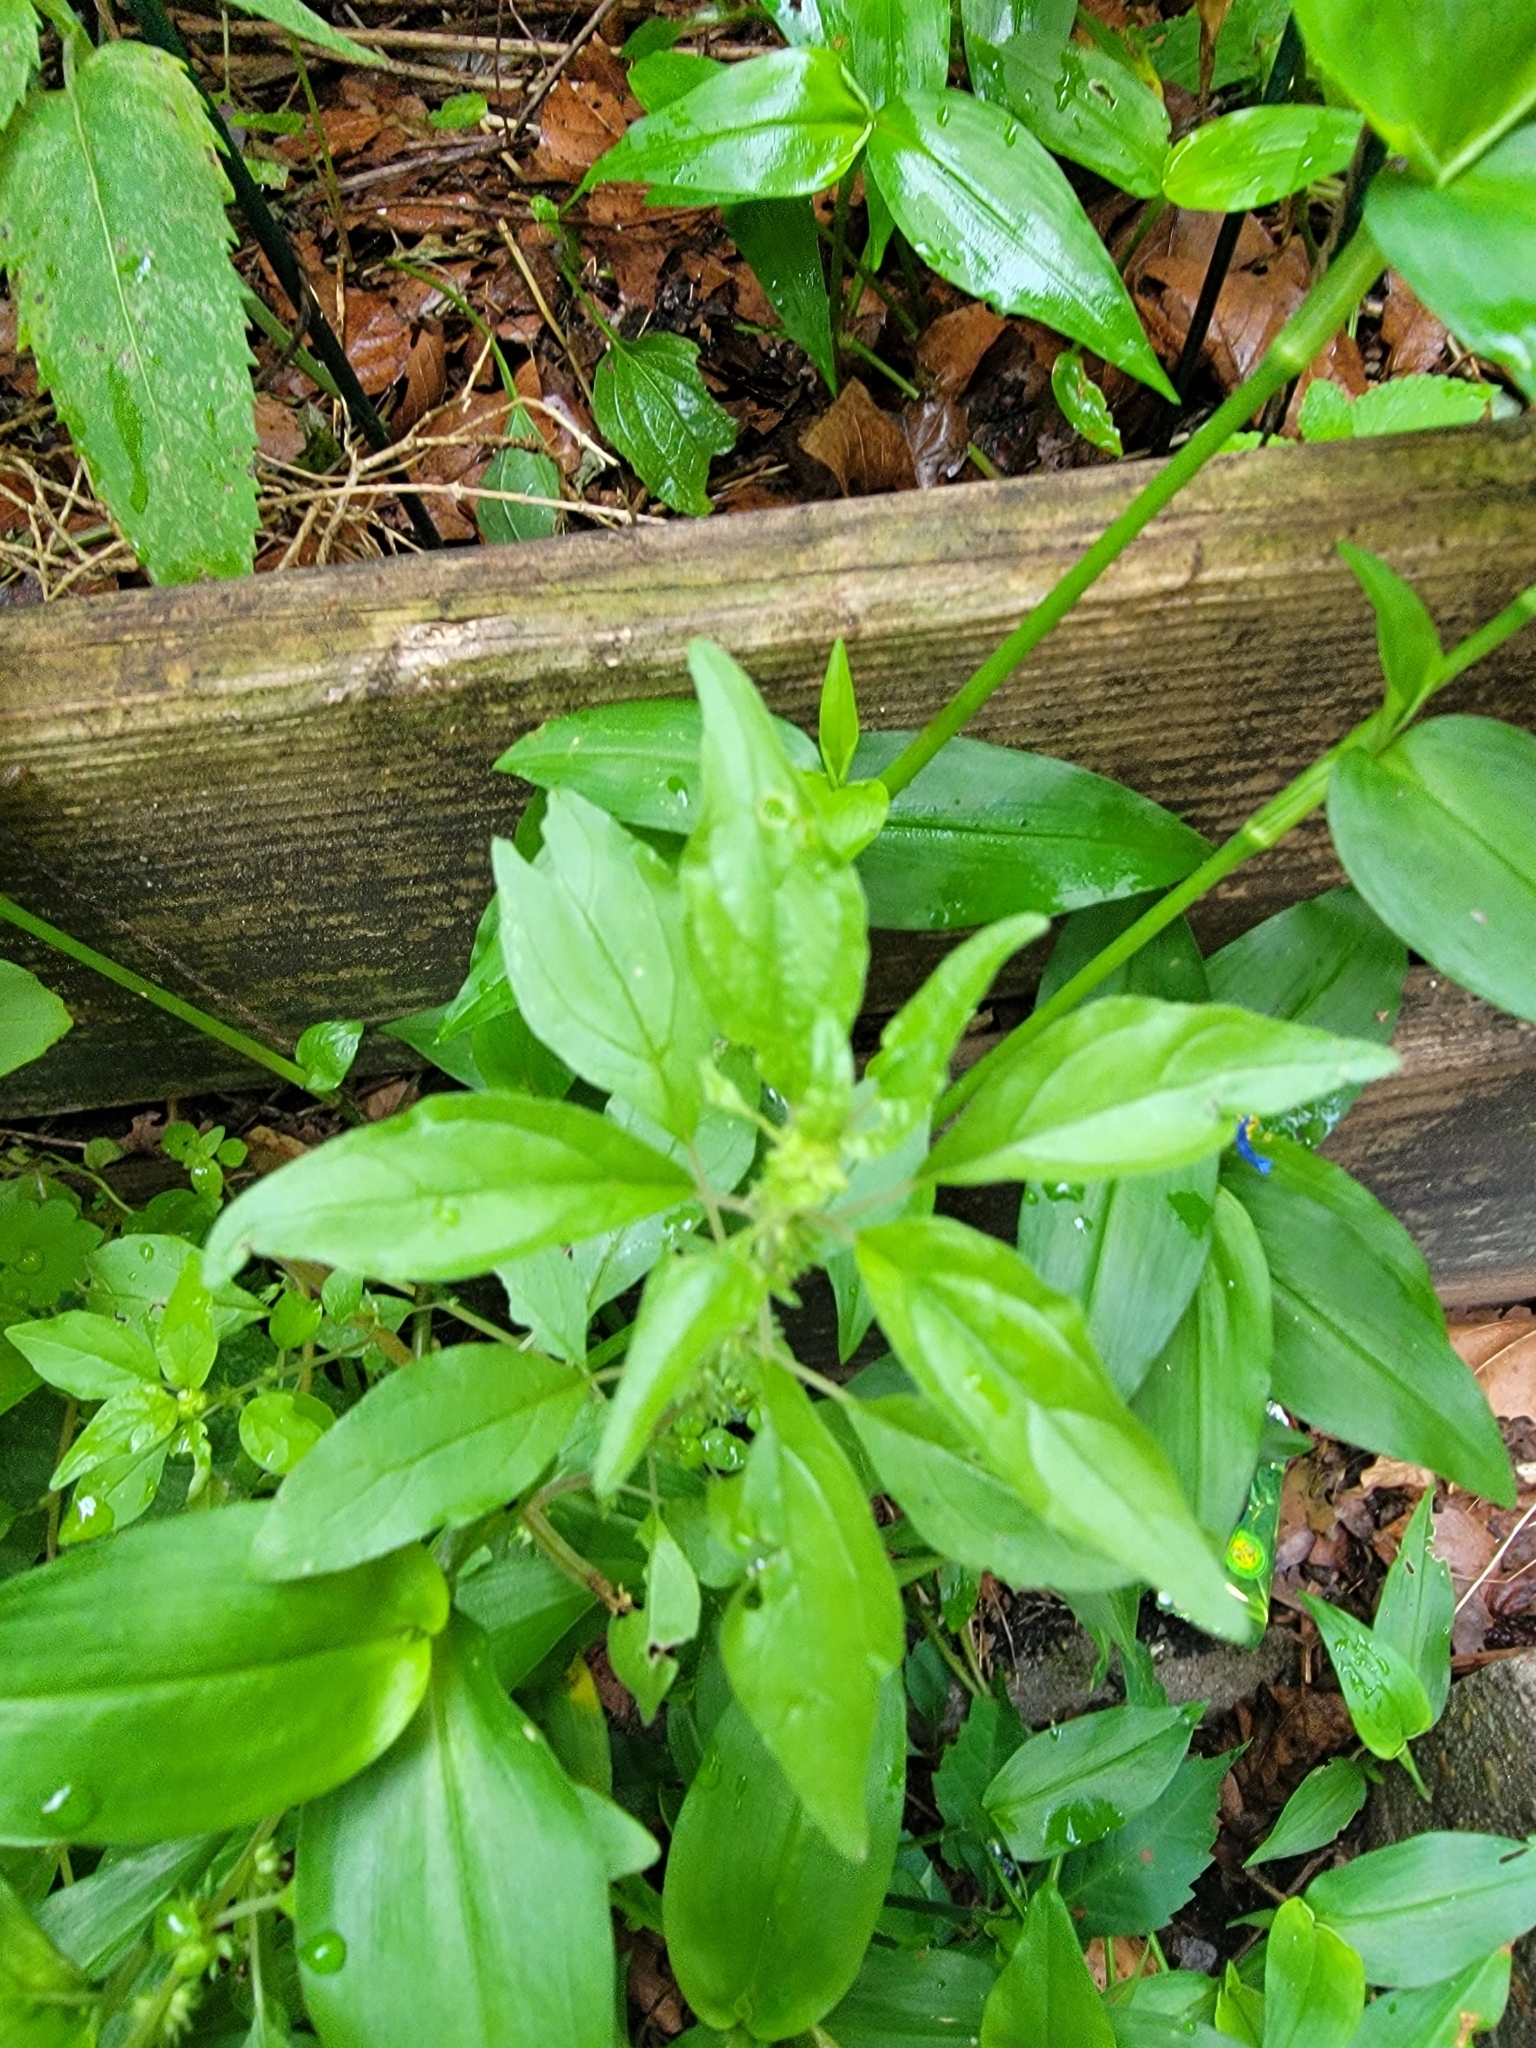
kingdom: Plantae
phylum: Tracheophyta
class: Magnoliopsida
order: Rosales
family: Urticaceae
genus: Parietaria
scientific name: Parietaria pensylvanica
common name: Pennsylvania pellitory
